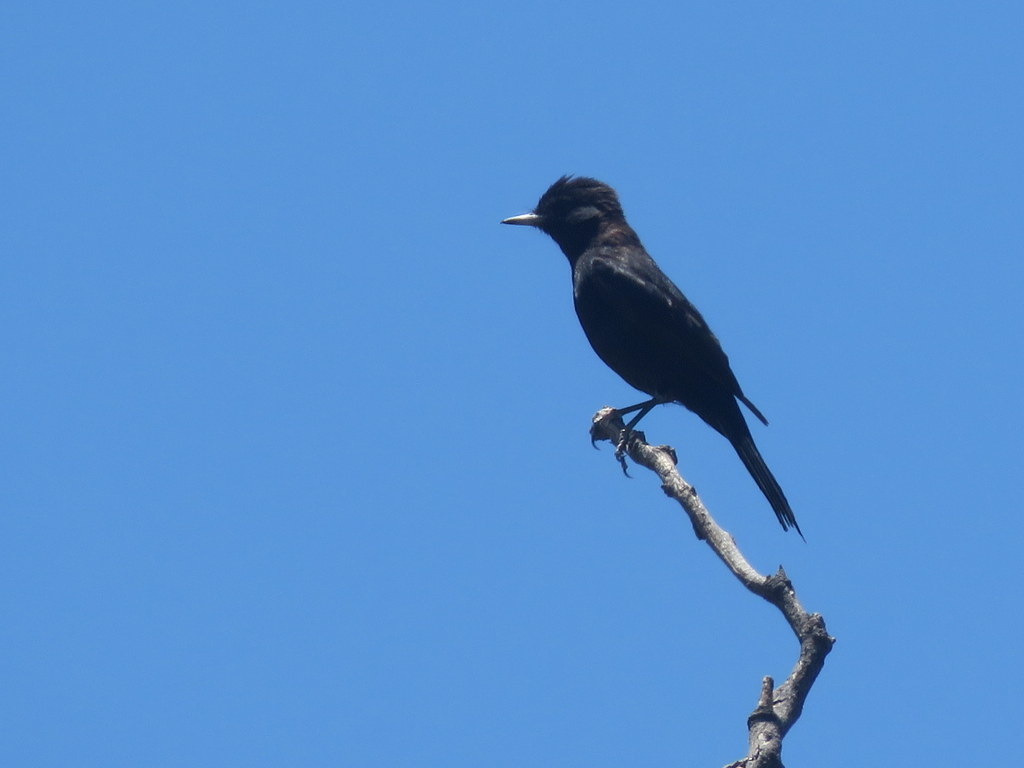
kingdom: Animalia
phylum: Chordata
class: Aves
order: Passeriformes
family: Tyrannidae
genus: Knipolegus
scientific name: Knipolegus aterrimus
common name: White-winged black tyrant
